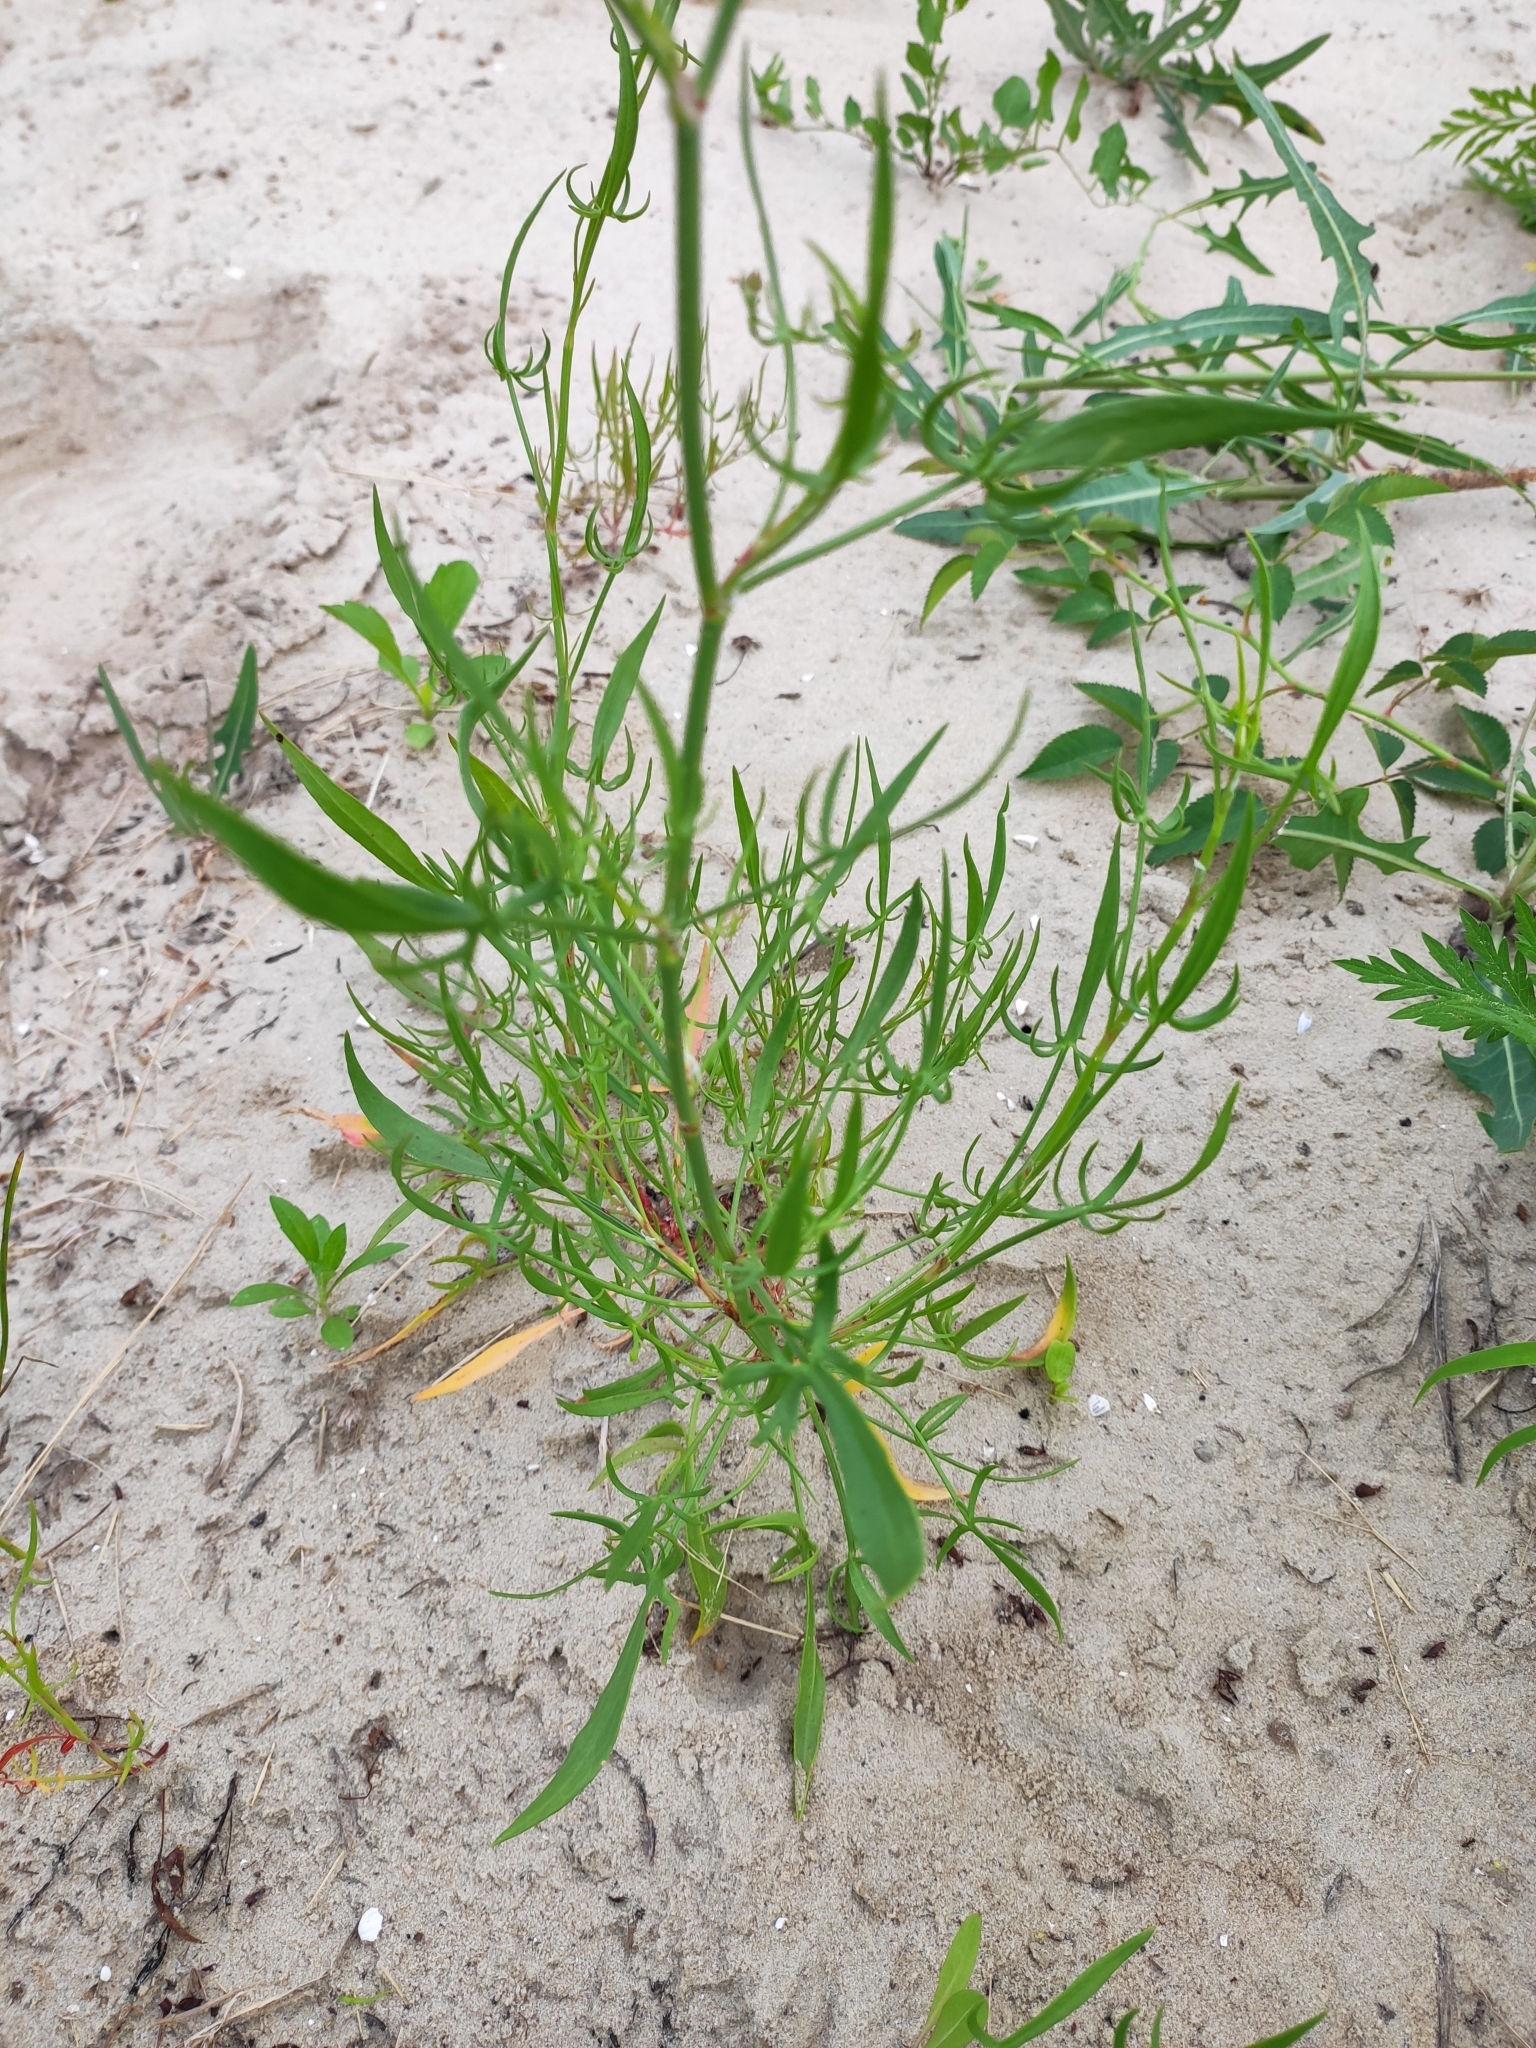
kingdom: Plantae
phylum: Tracheophyta
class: Magnoliopsida
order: Caryophyllales
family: Polygonaceae
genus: Rumex
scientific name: Rumex acetosella
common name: Common sheep sorrel
